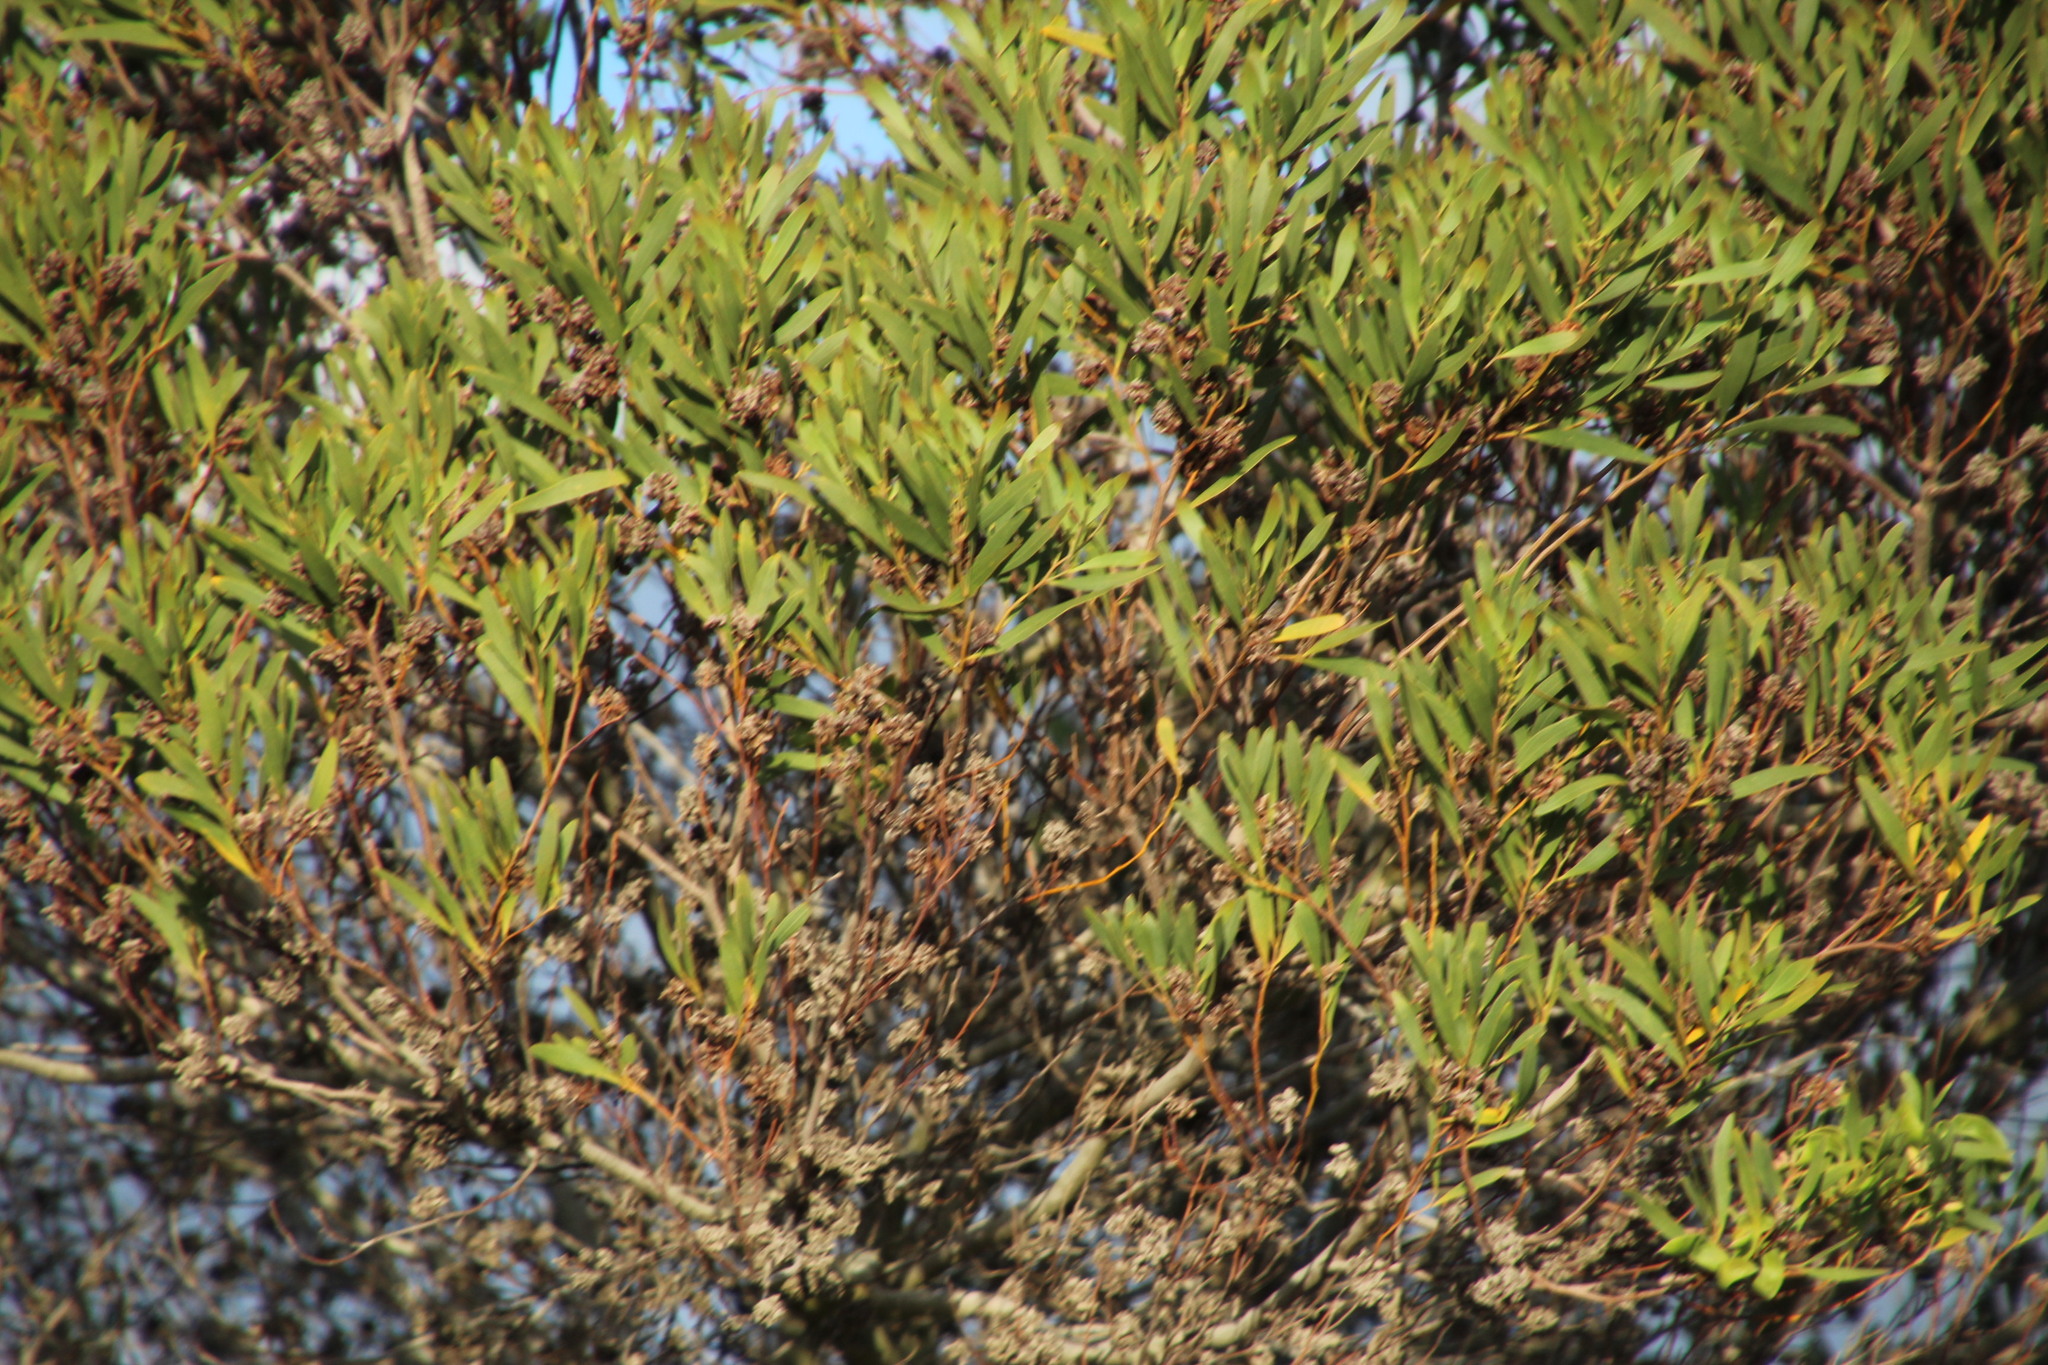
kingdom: Animalia
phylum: Arthropoda
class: Insecta
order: Diptera
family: Cecidomyiidae
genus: Dasineura
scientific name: Dasineura dielsi
